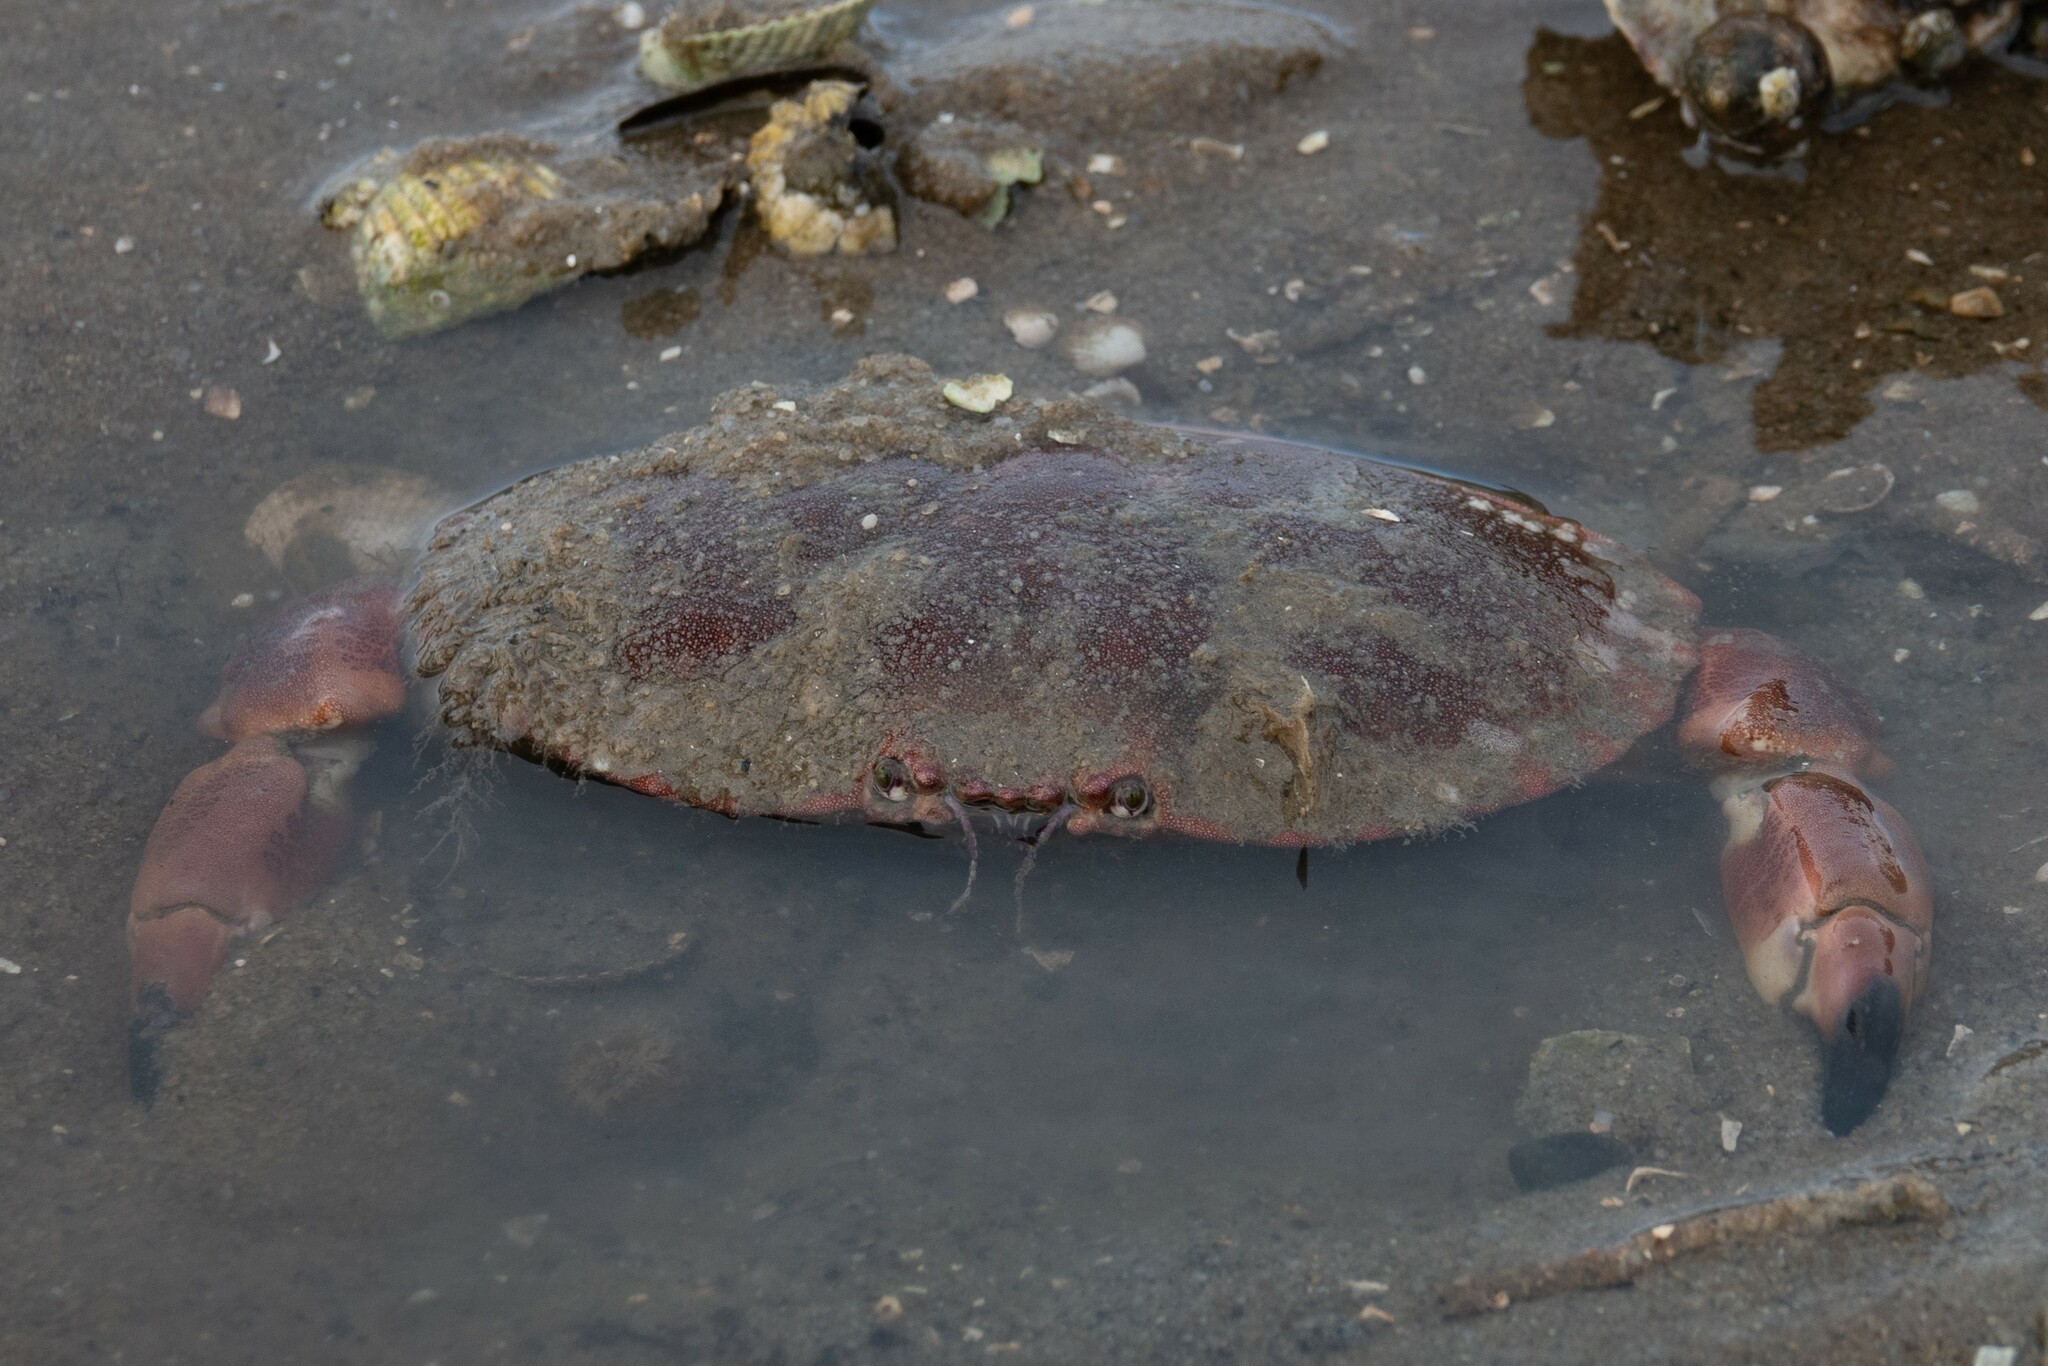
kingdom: Animalia
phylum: Arthropoda
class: Malacostraca
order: Decapoda
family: Cancridae
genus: Cancer
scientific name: Cancer pagurus
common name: Edible crab
